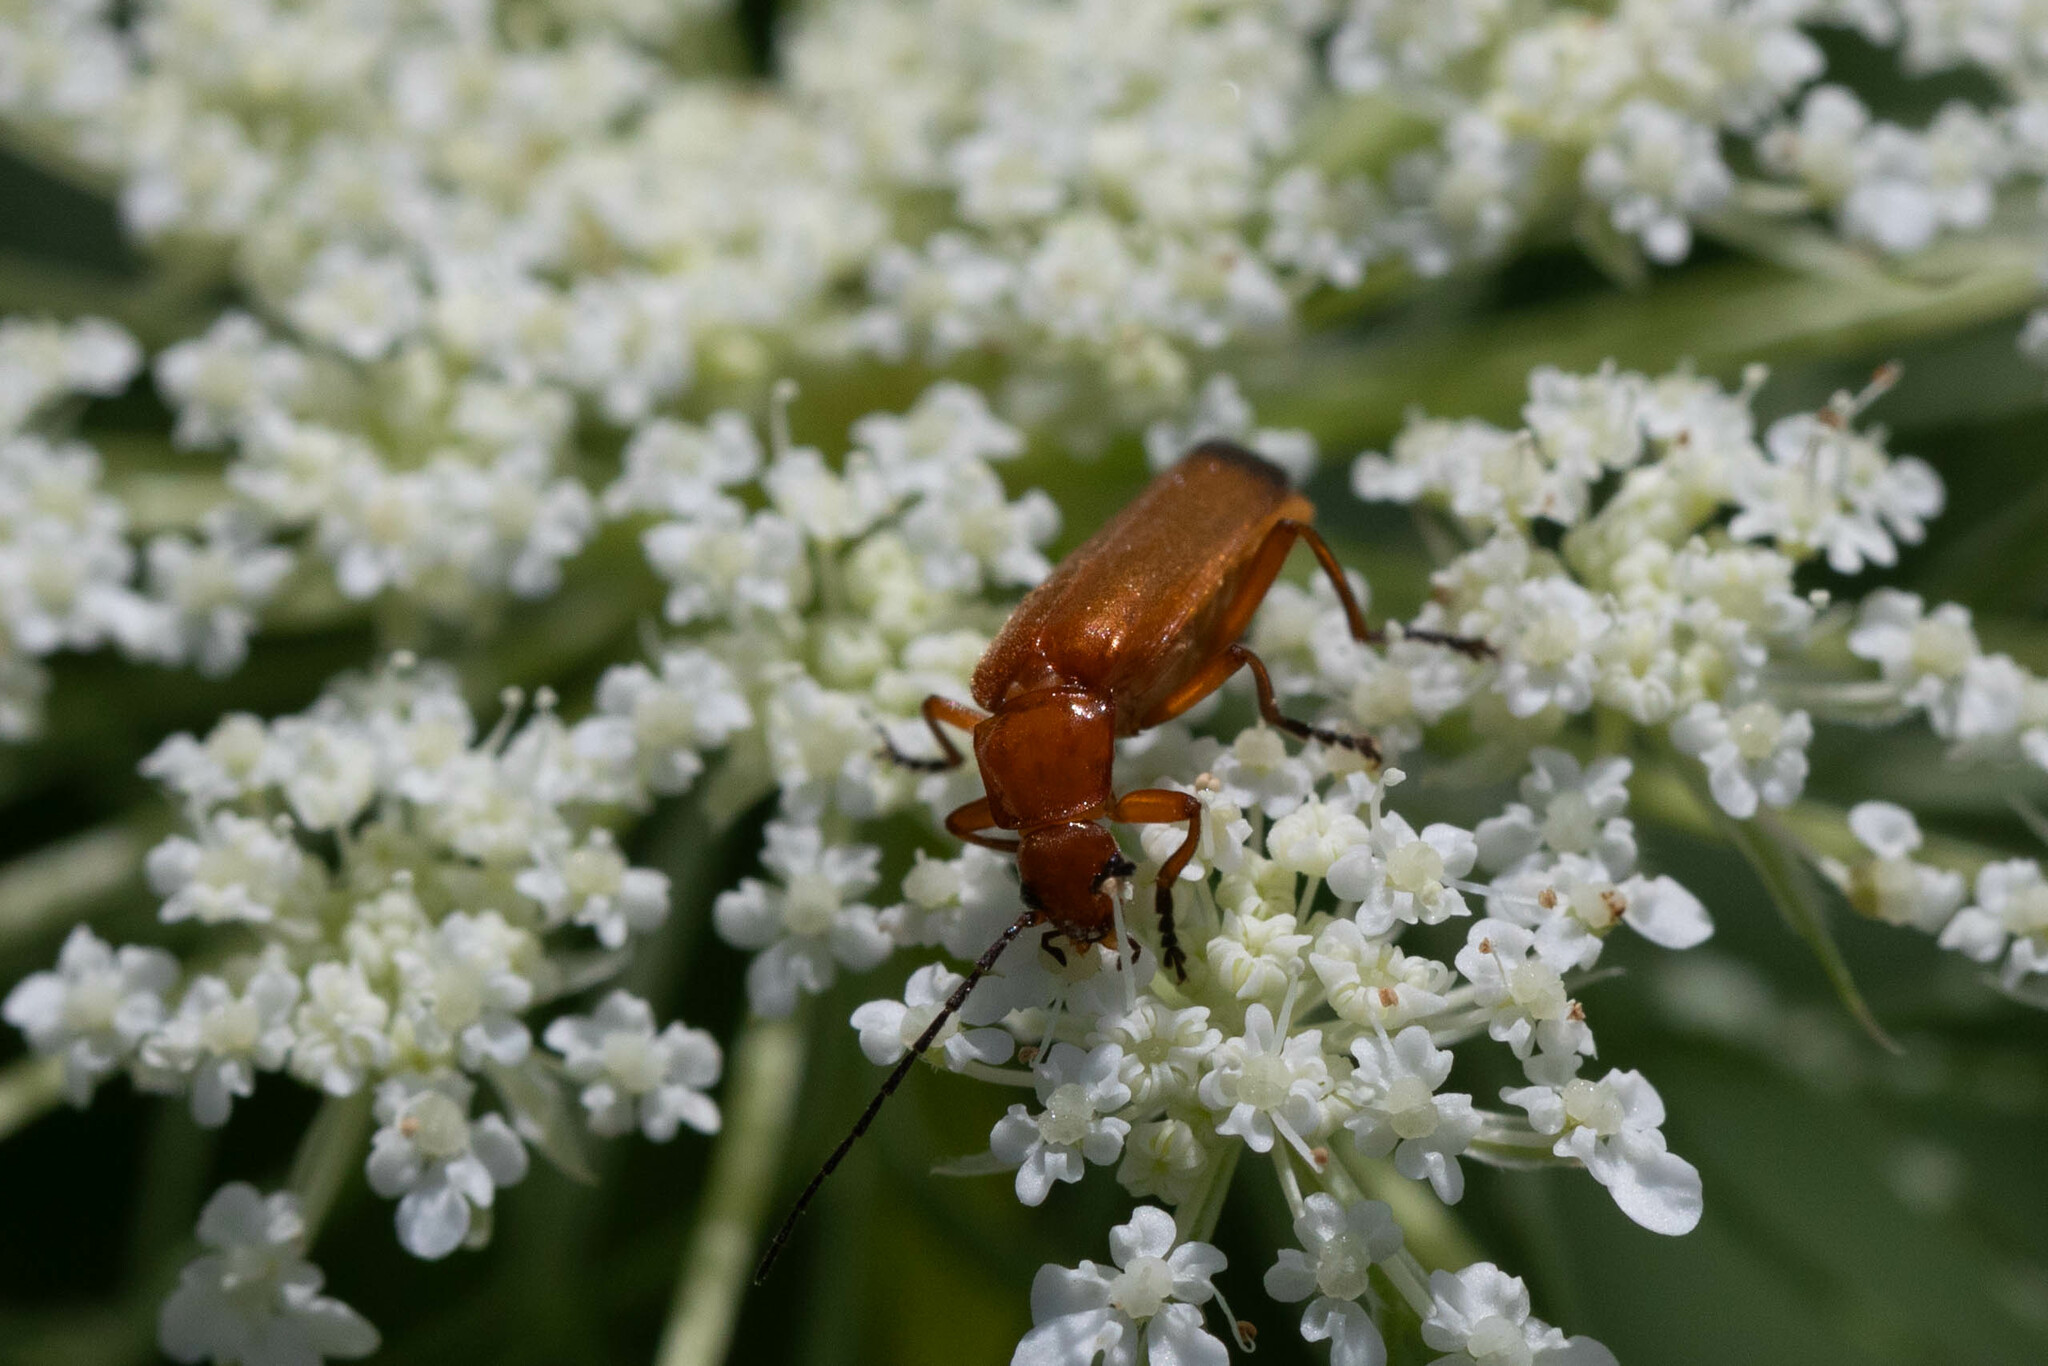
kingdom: Animalia
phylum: Arthropoda
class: Insecta
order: Coleoptera
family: Cantharidae
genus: Rhagonycha
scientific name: Rhagonycha fulva
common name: Common red soldier beetle
